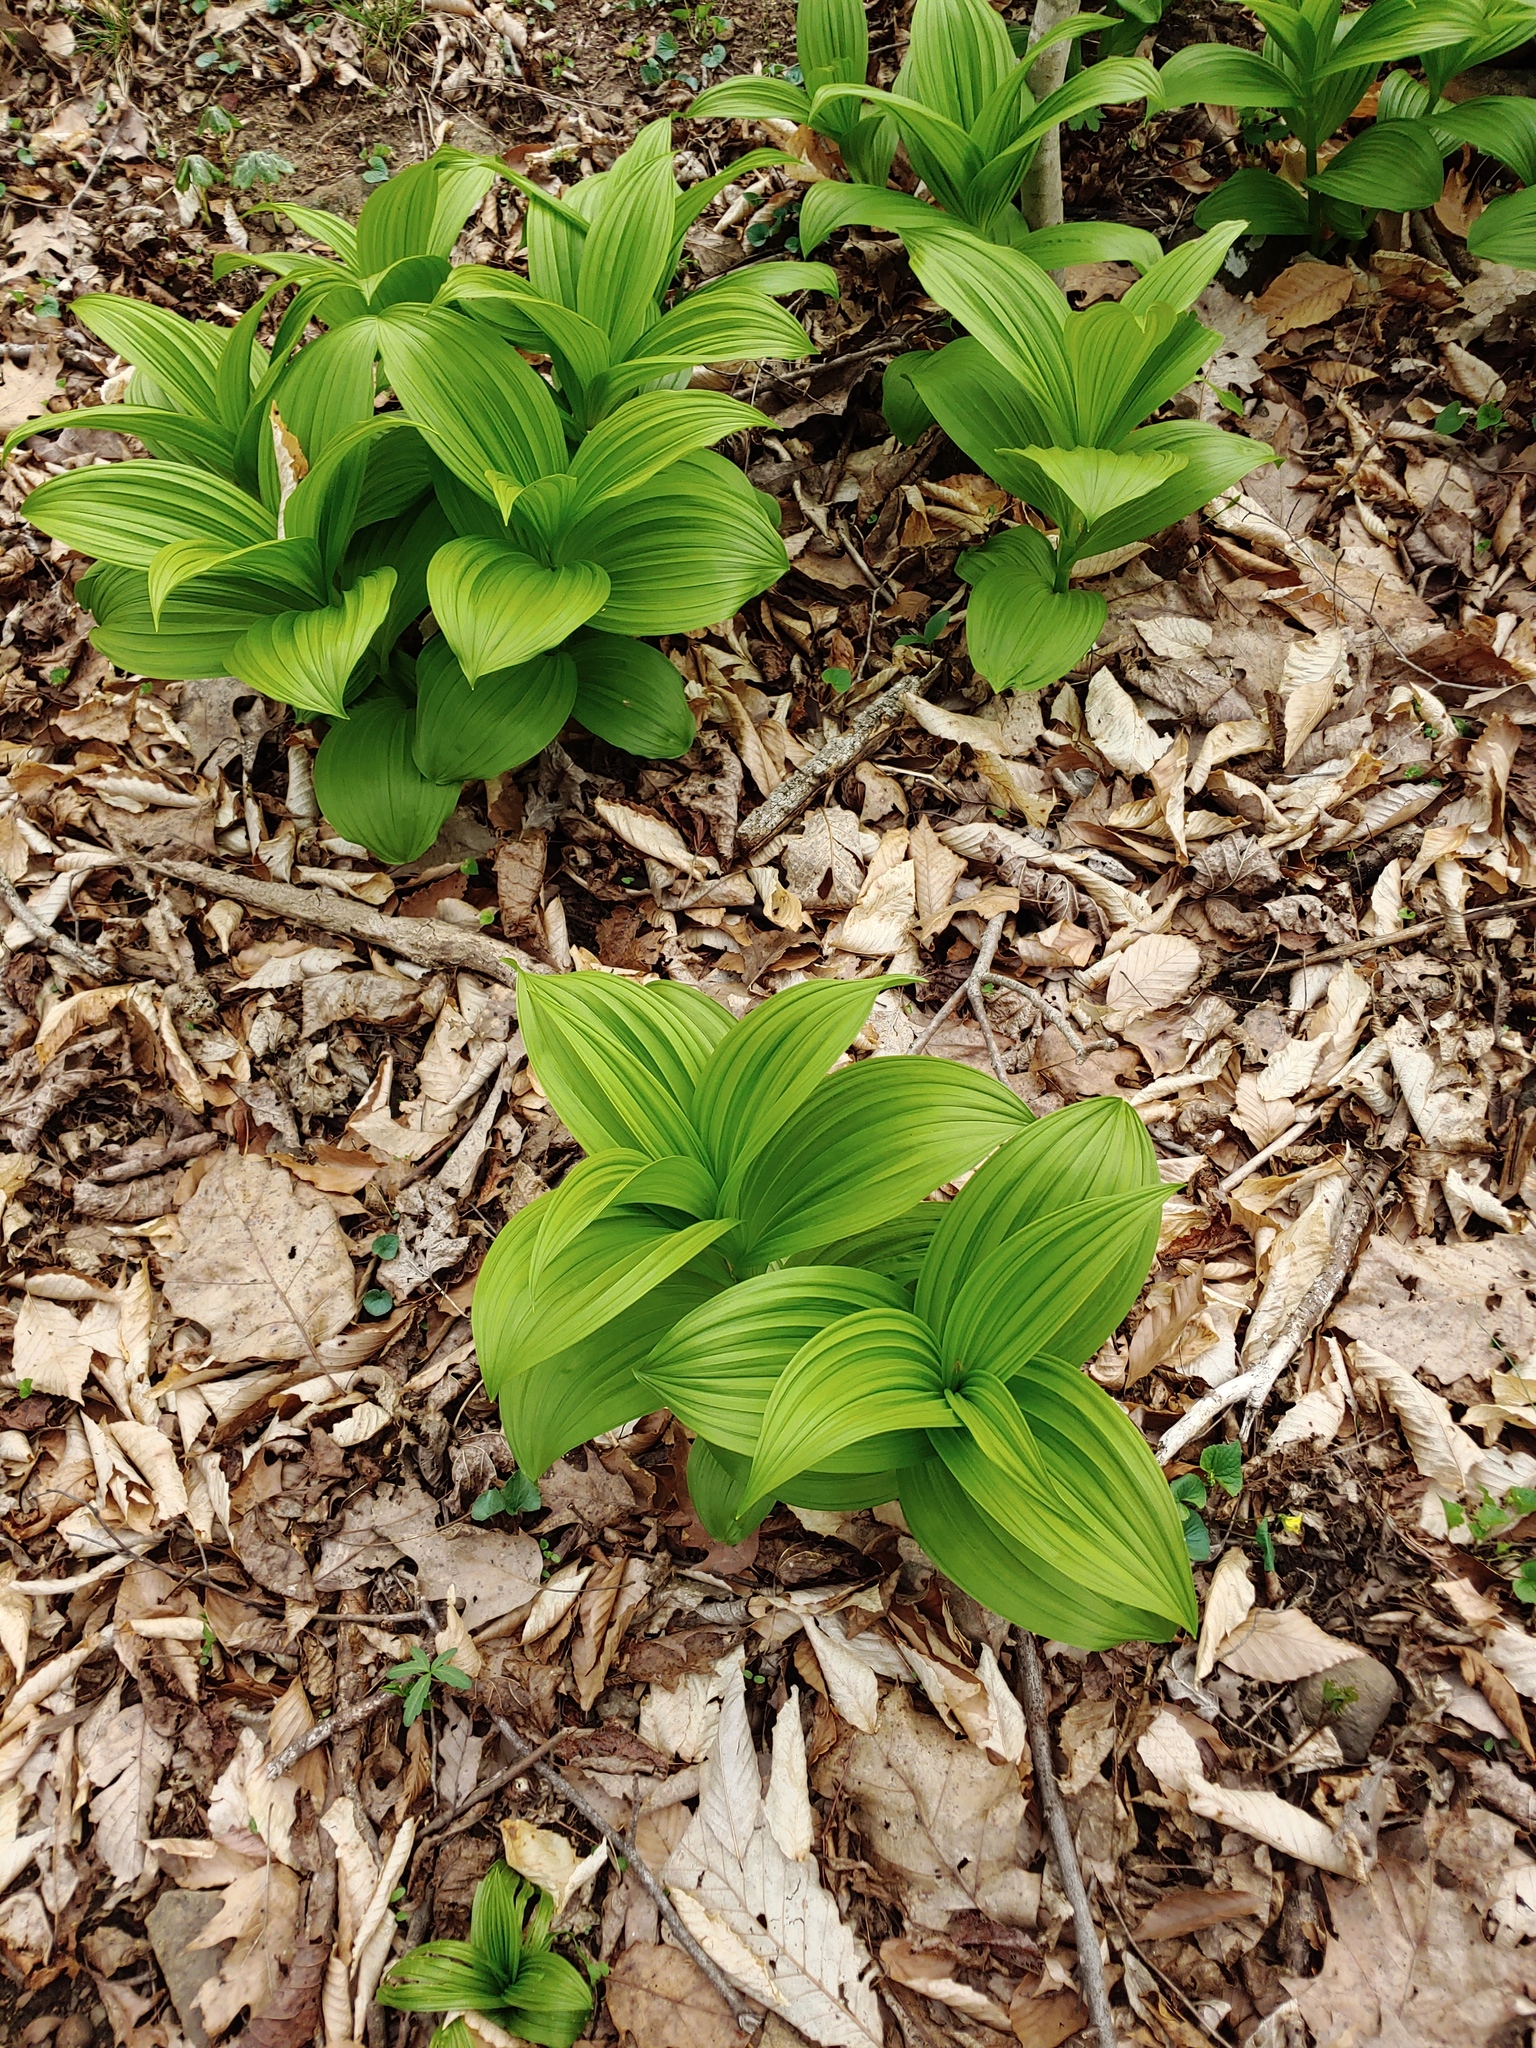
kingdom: Plantae
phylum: Tracheophyta
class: Liliopsida
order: Liliales
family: Melanthiaceae
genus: Veratrum
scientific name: Veratrum viride
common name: American false hellebore
